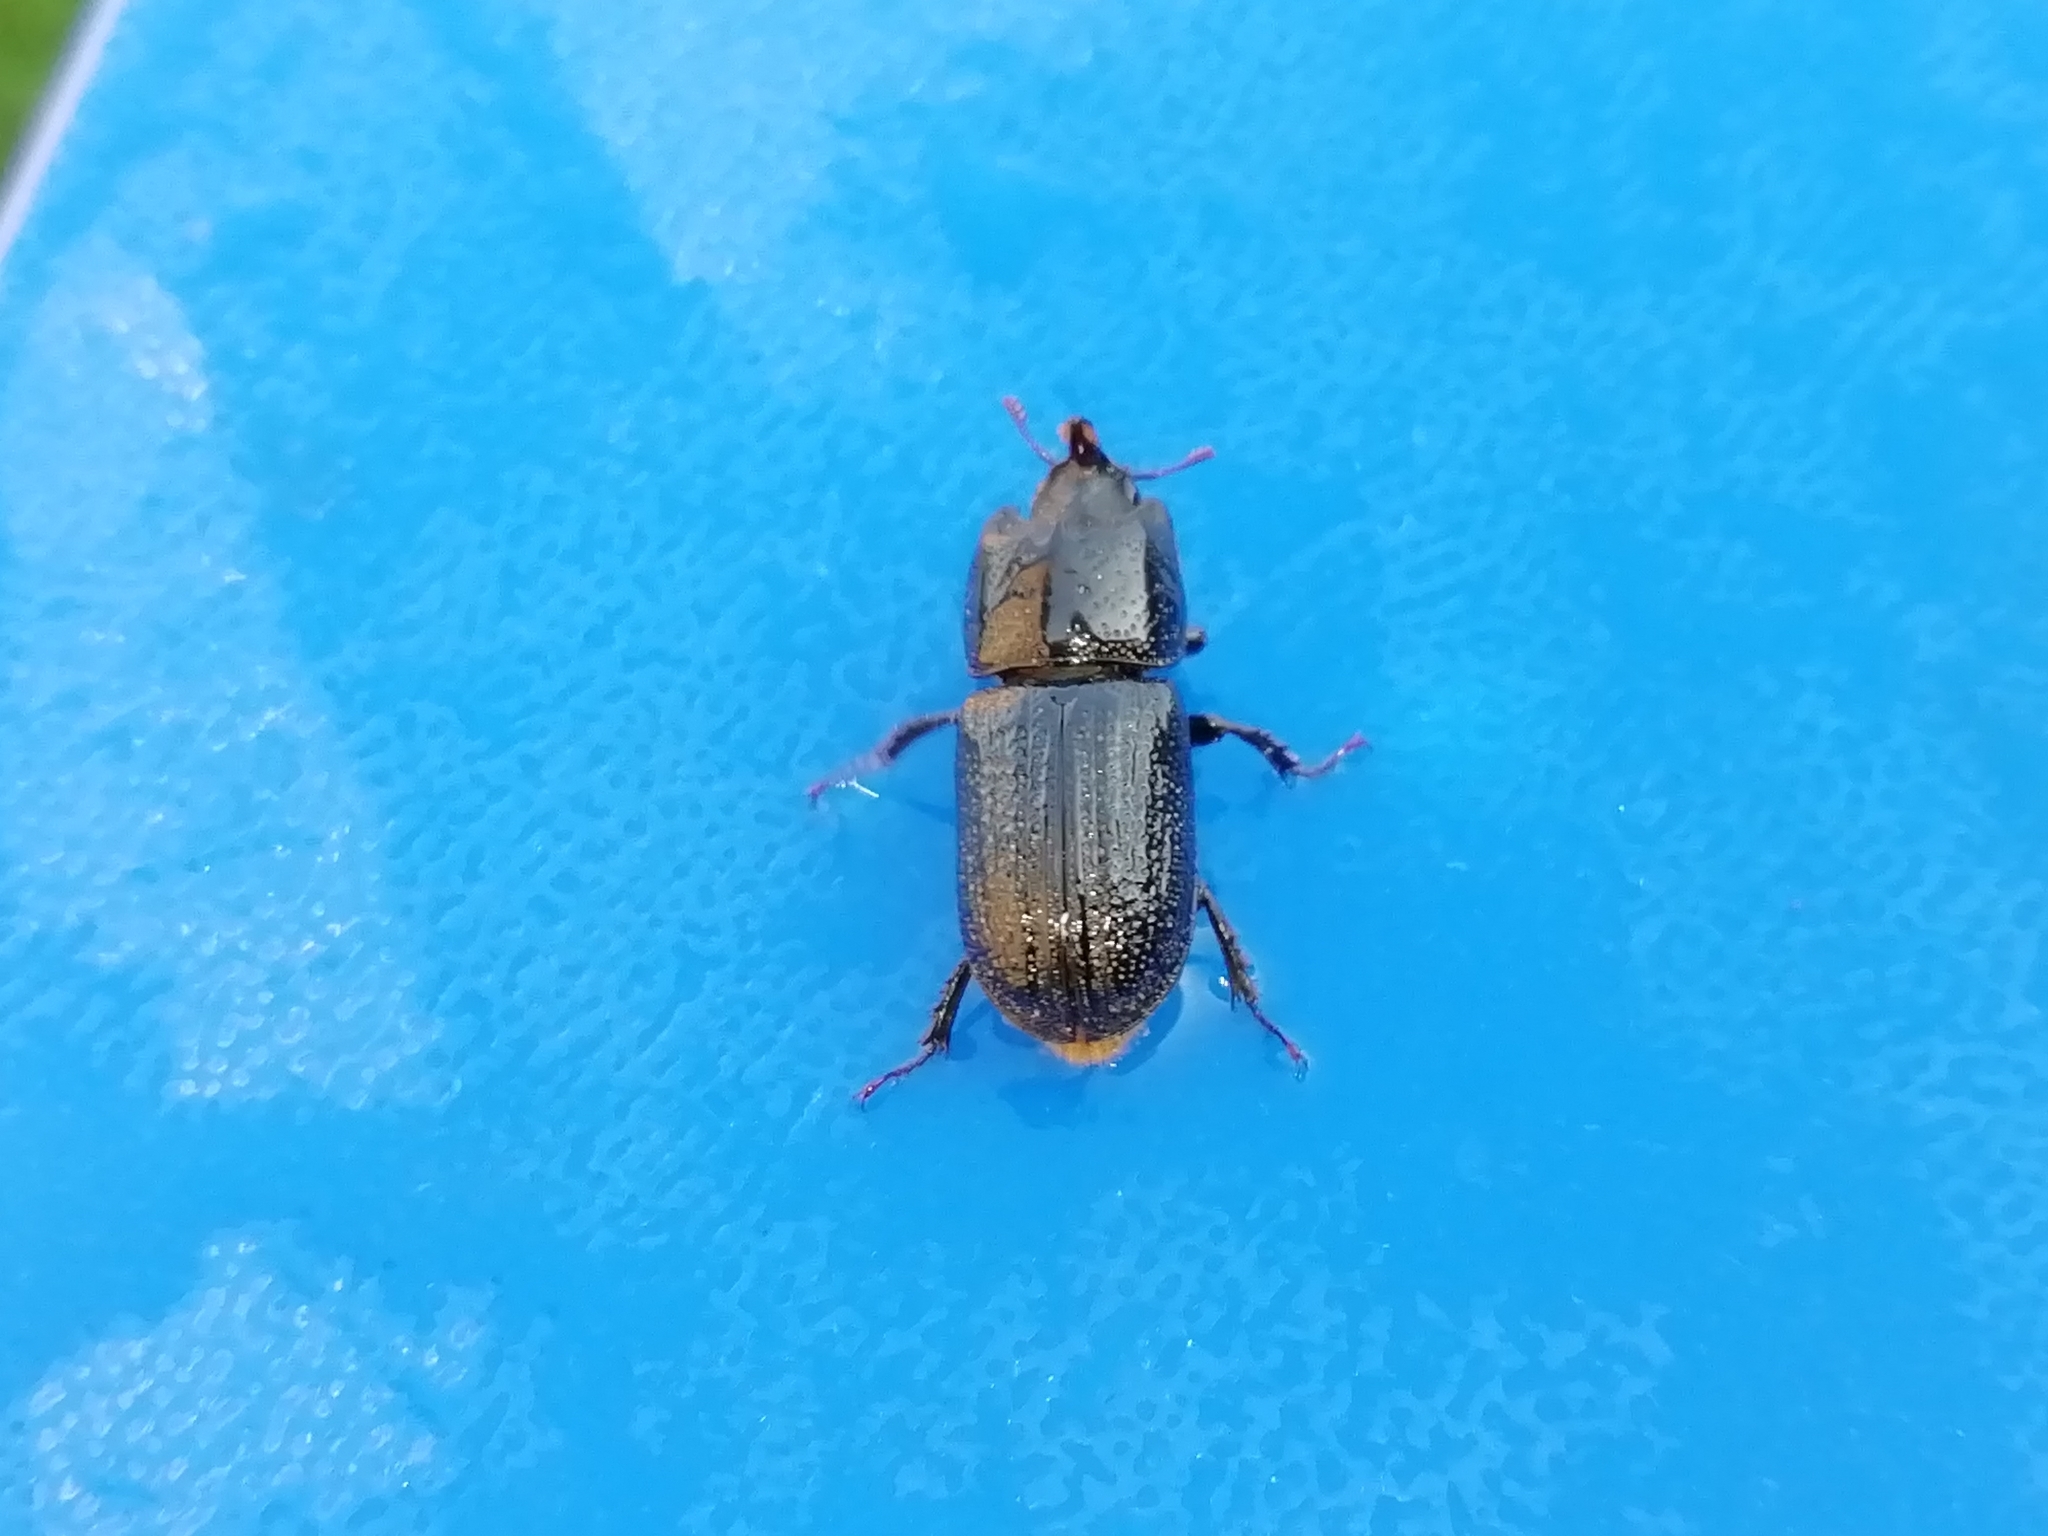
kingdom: Animalia
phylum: Arthropoda
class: Insecta
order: Coleoptera
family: Lucanidae
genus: Sinodendron
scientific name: Sinodendron cylindricum
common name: Rhinoceros beetle
